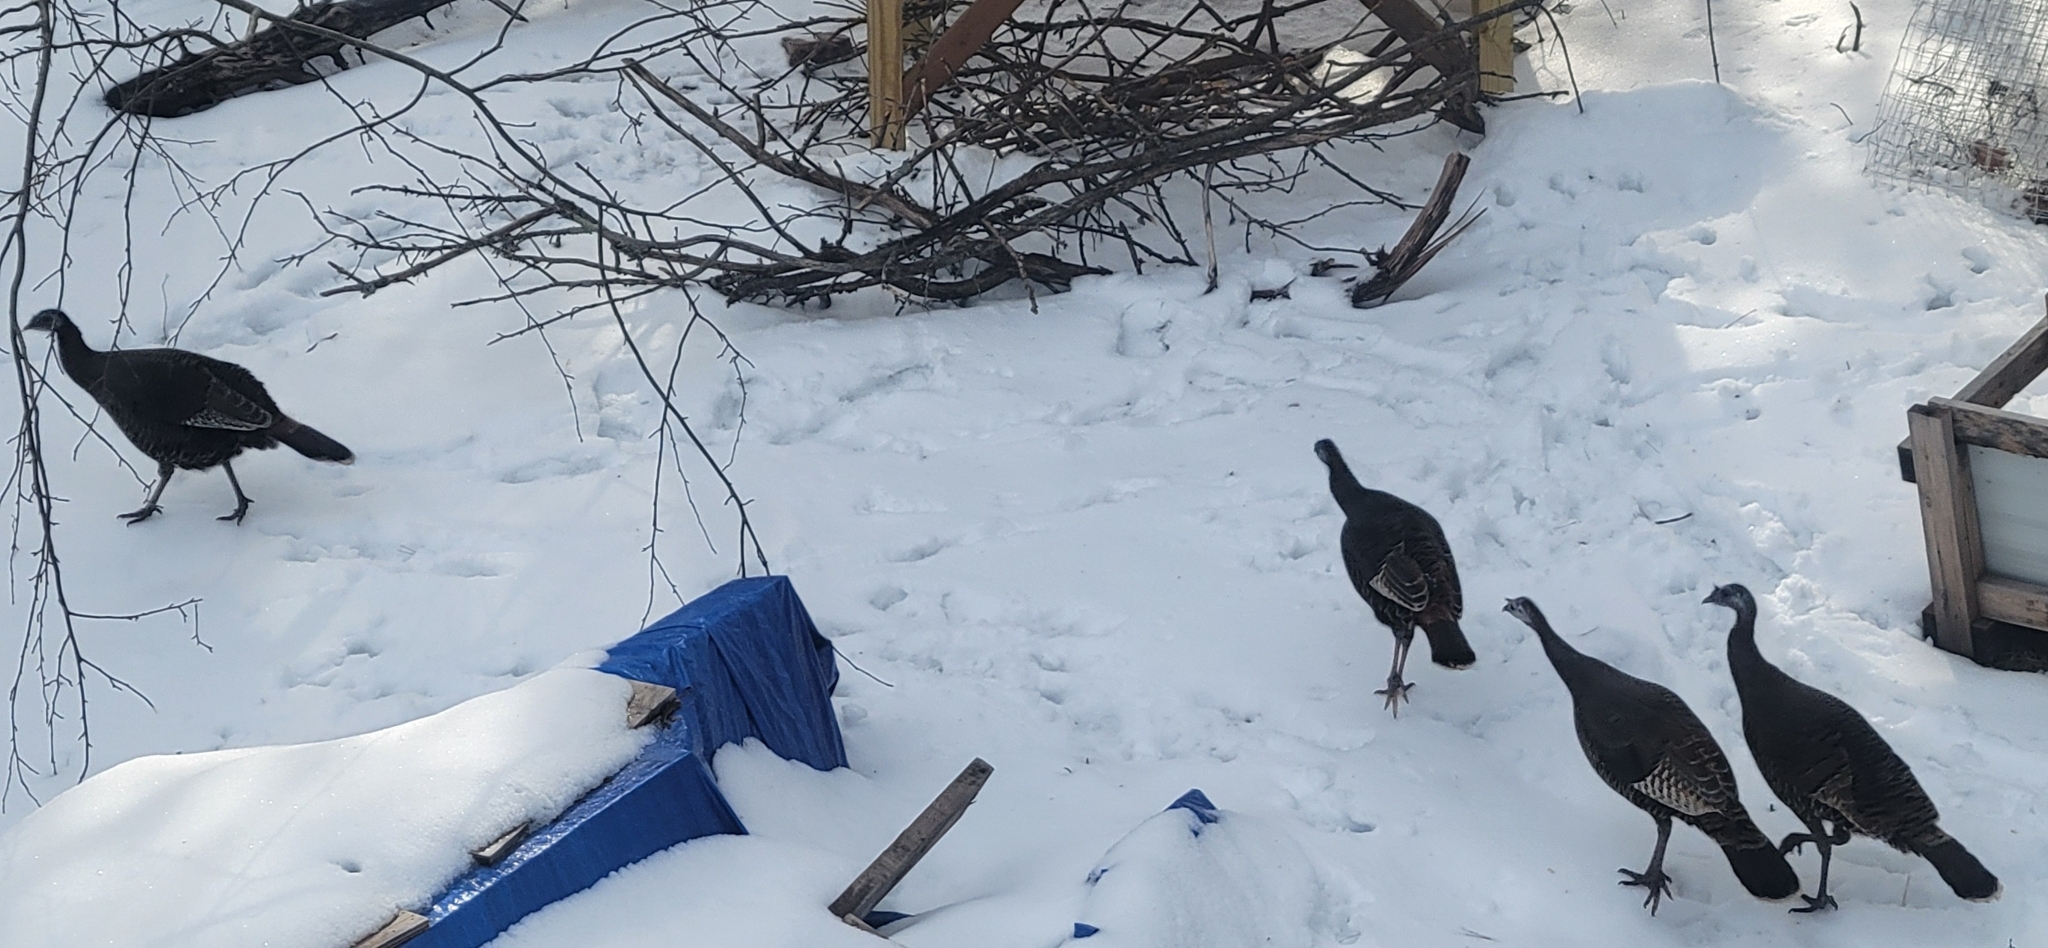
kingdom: Animalia
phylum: Chordata
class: Aves
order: Galliformes
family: Phasianidae
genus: Meleagris
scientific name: Meleagris gallopavo
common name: Wild turkey
